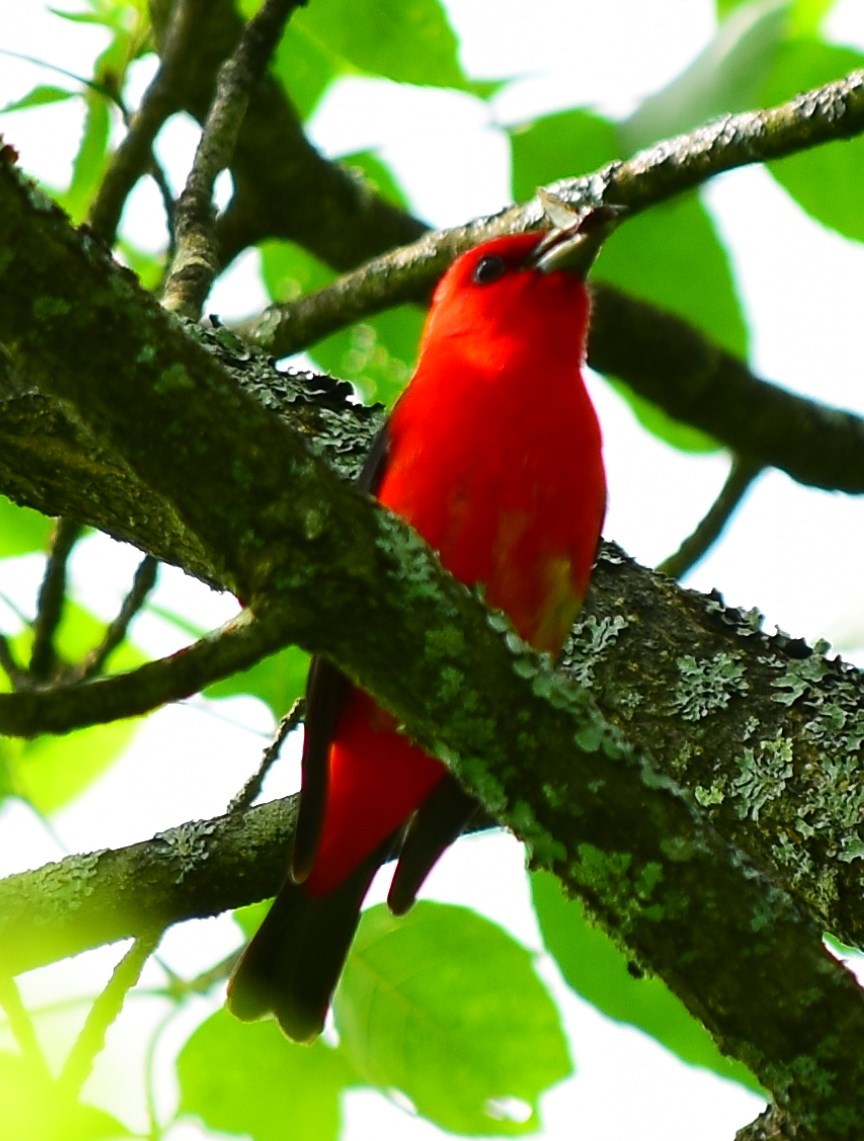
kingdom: Animalia
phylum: Chordata
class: Aves
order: Passeriformes
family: Cardinalidae
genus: Piranga
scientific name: Piranga olivacea
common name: Scarlet tanager
